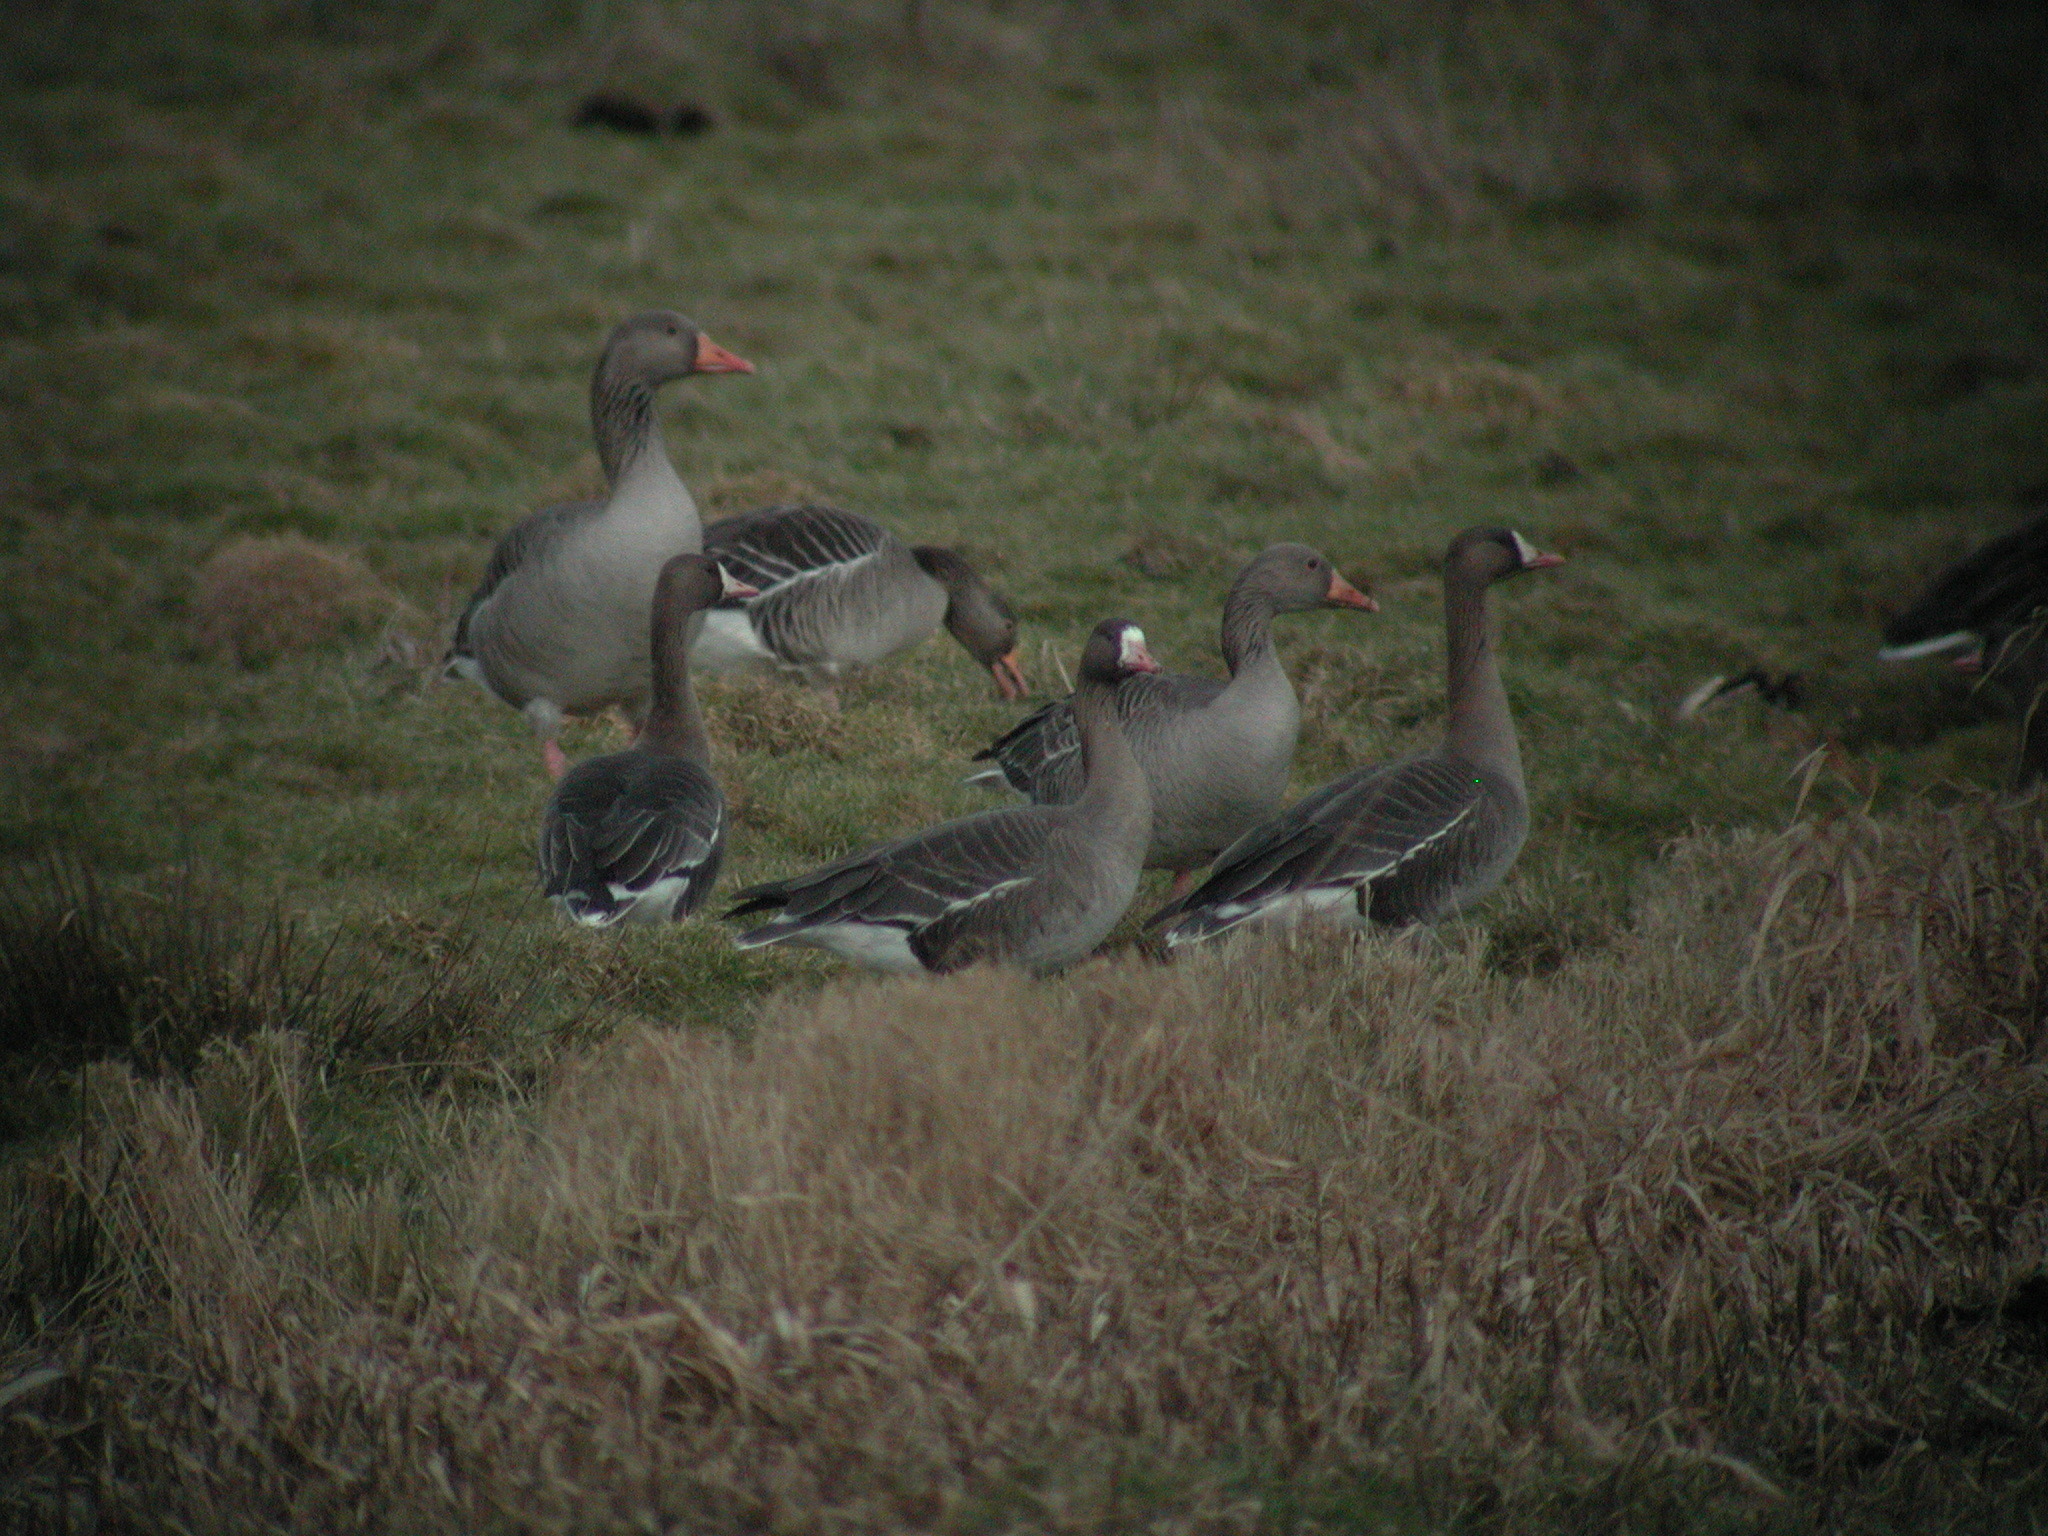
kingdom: Animalia
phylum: Chordata
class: Aves
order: Anseriformes
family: Anatidae
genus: Anser
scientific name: Anser albifrons
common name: Greater white-fronted goose
